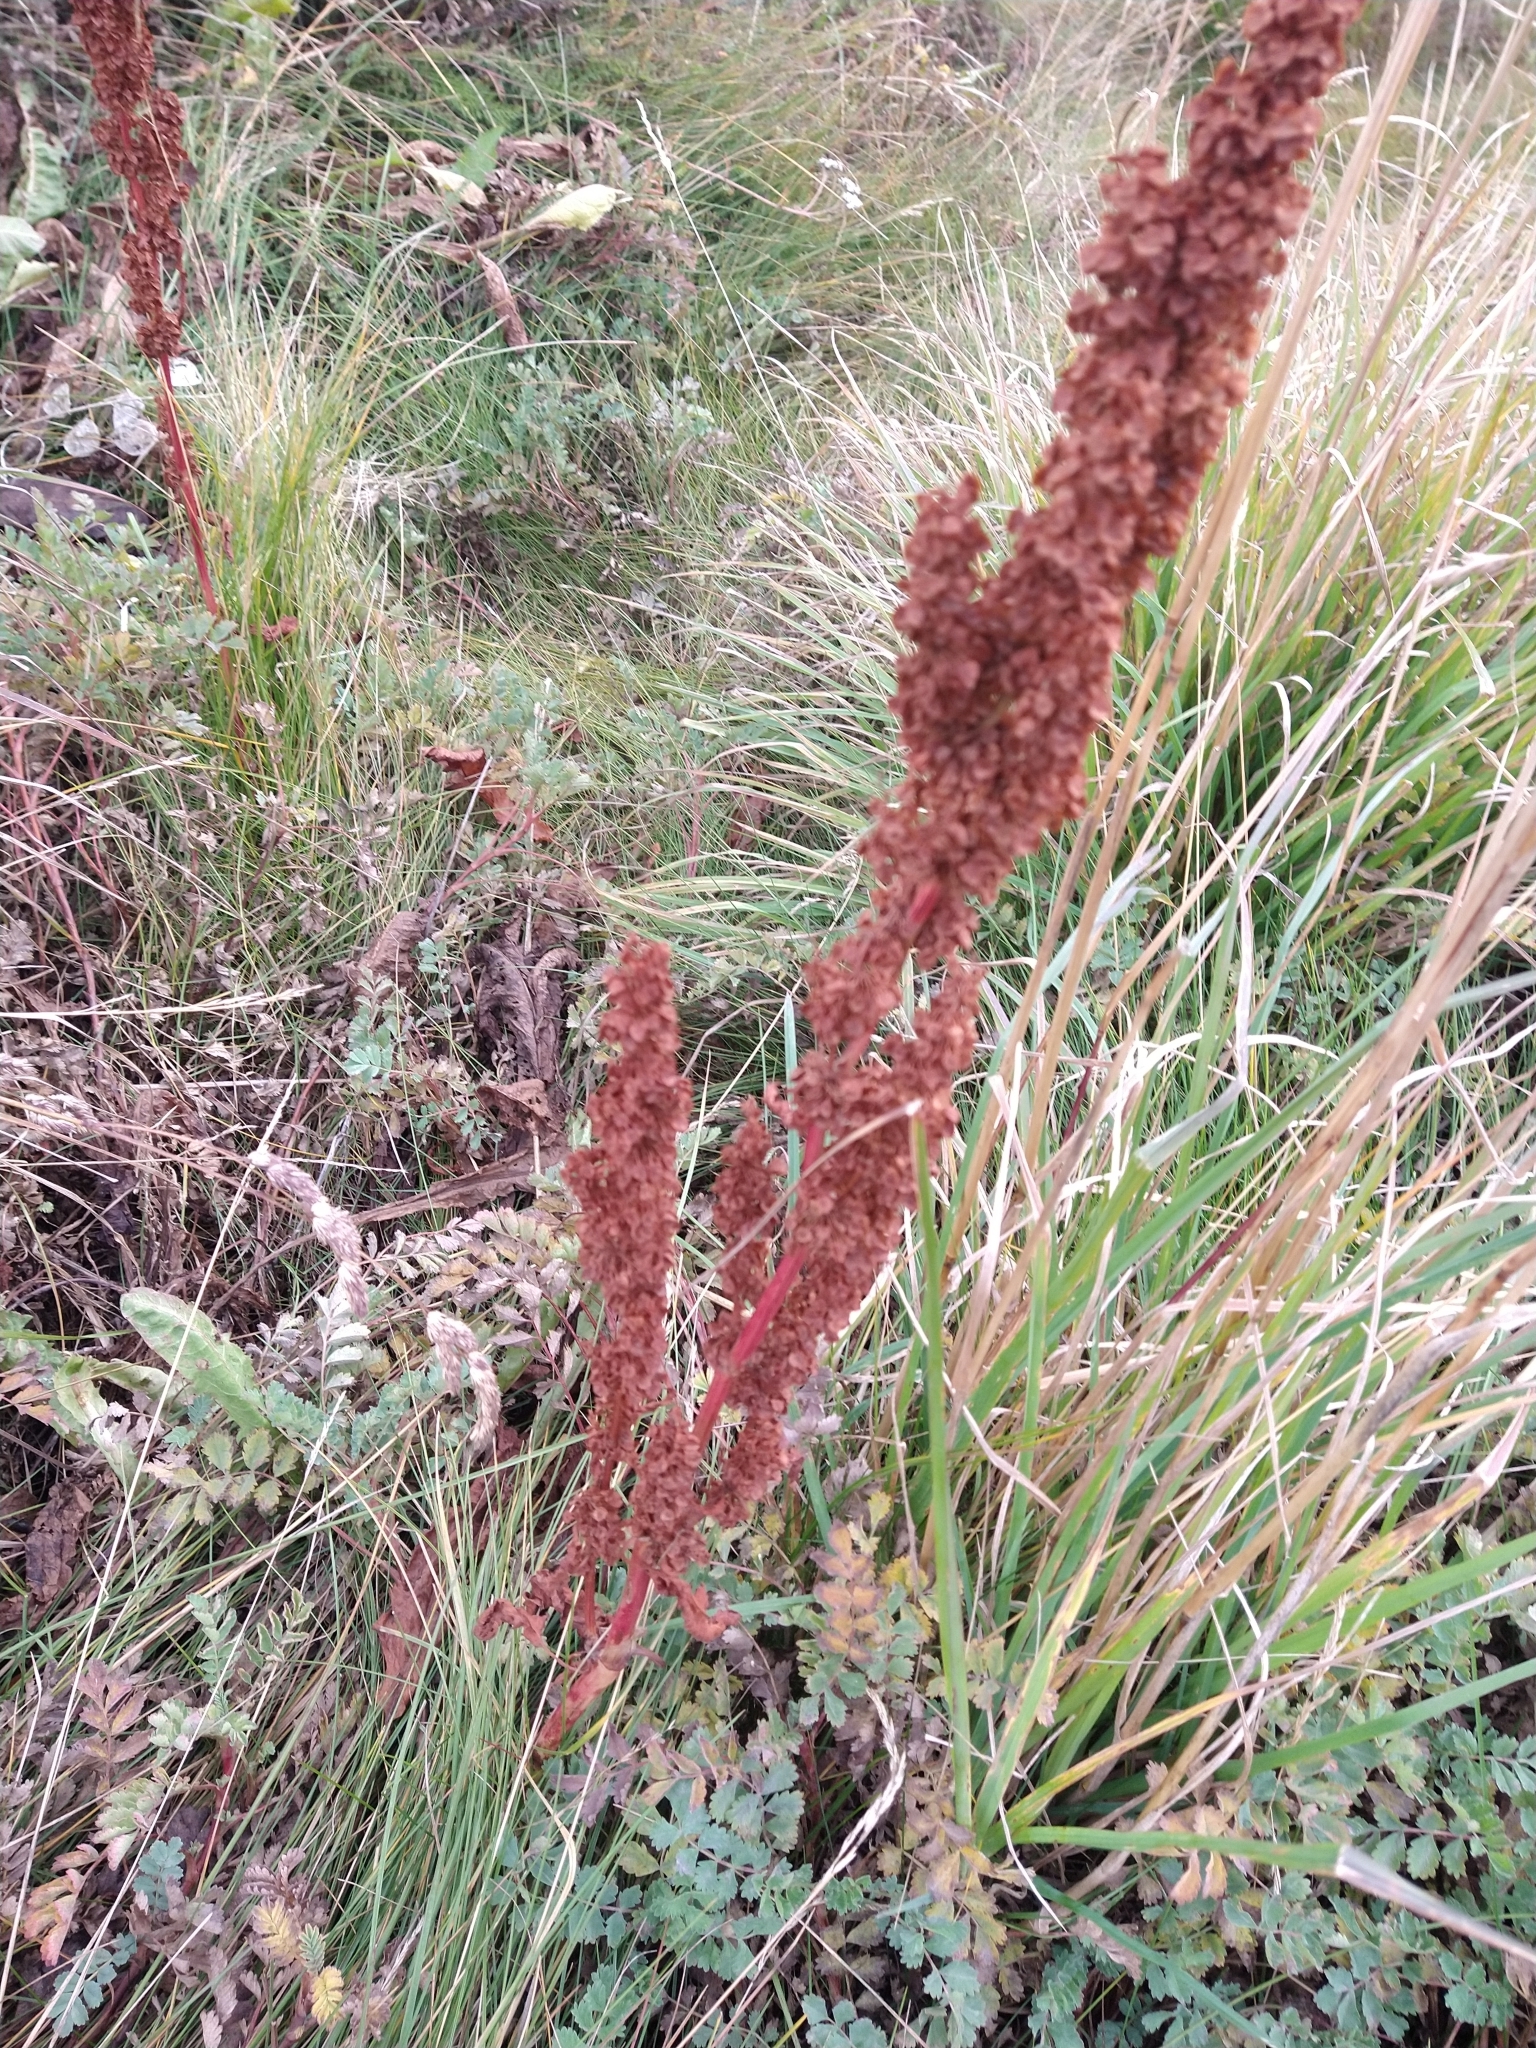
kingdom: Plantae
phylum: Tracheophyta
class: Magnoliopsida
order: Caryophyllales
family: Polygonaceae
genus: Rumex
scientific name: Rumex crispus
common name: Curled dock
